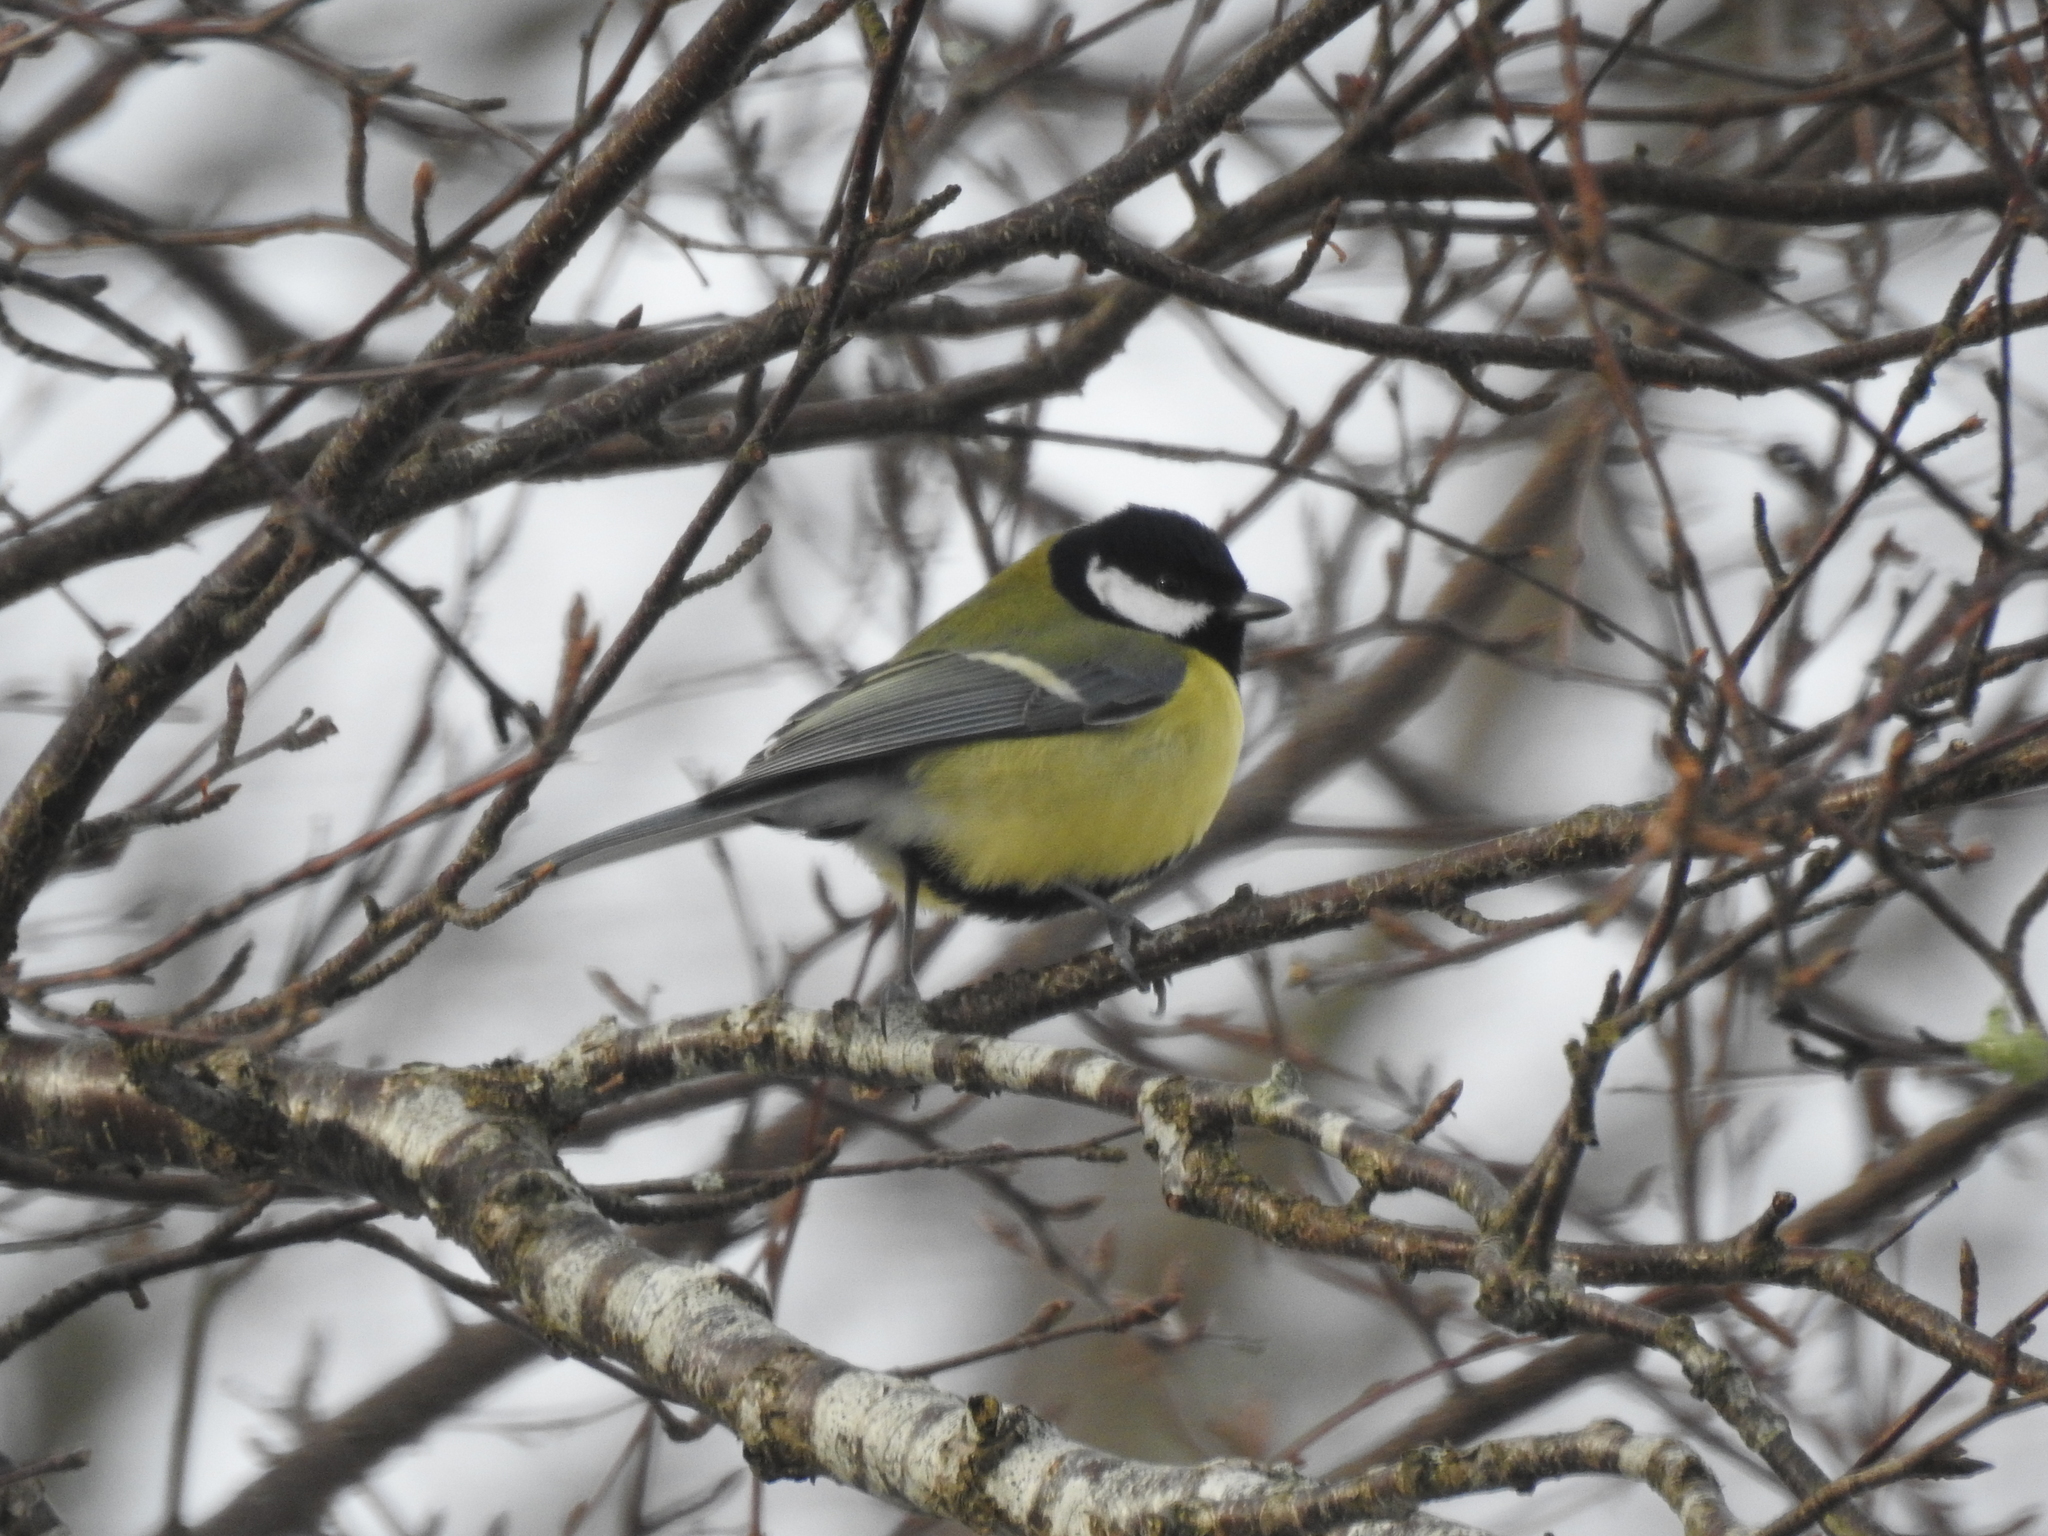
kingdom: Animalia
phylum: Chordata
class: Aves
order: Passeriformes
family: Paridae
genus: Parus
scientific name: Parus major
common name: Great tit
